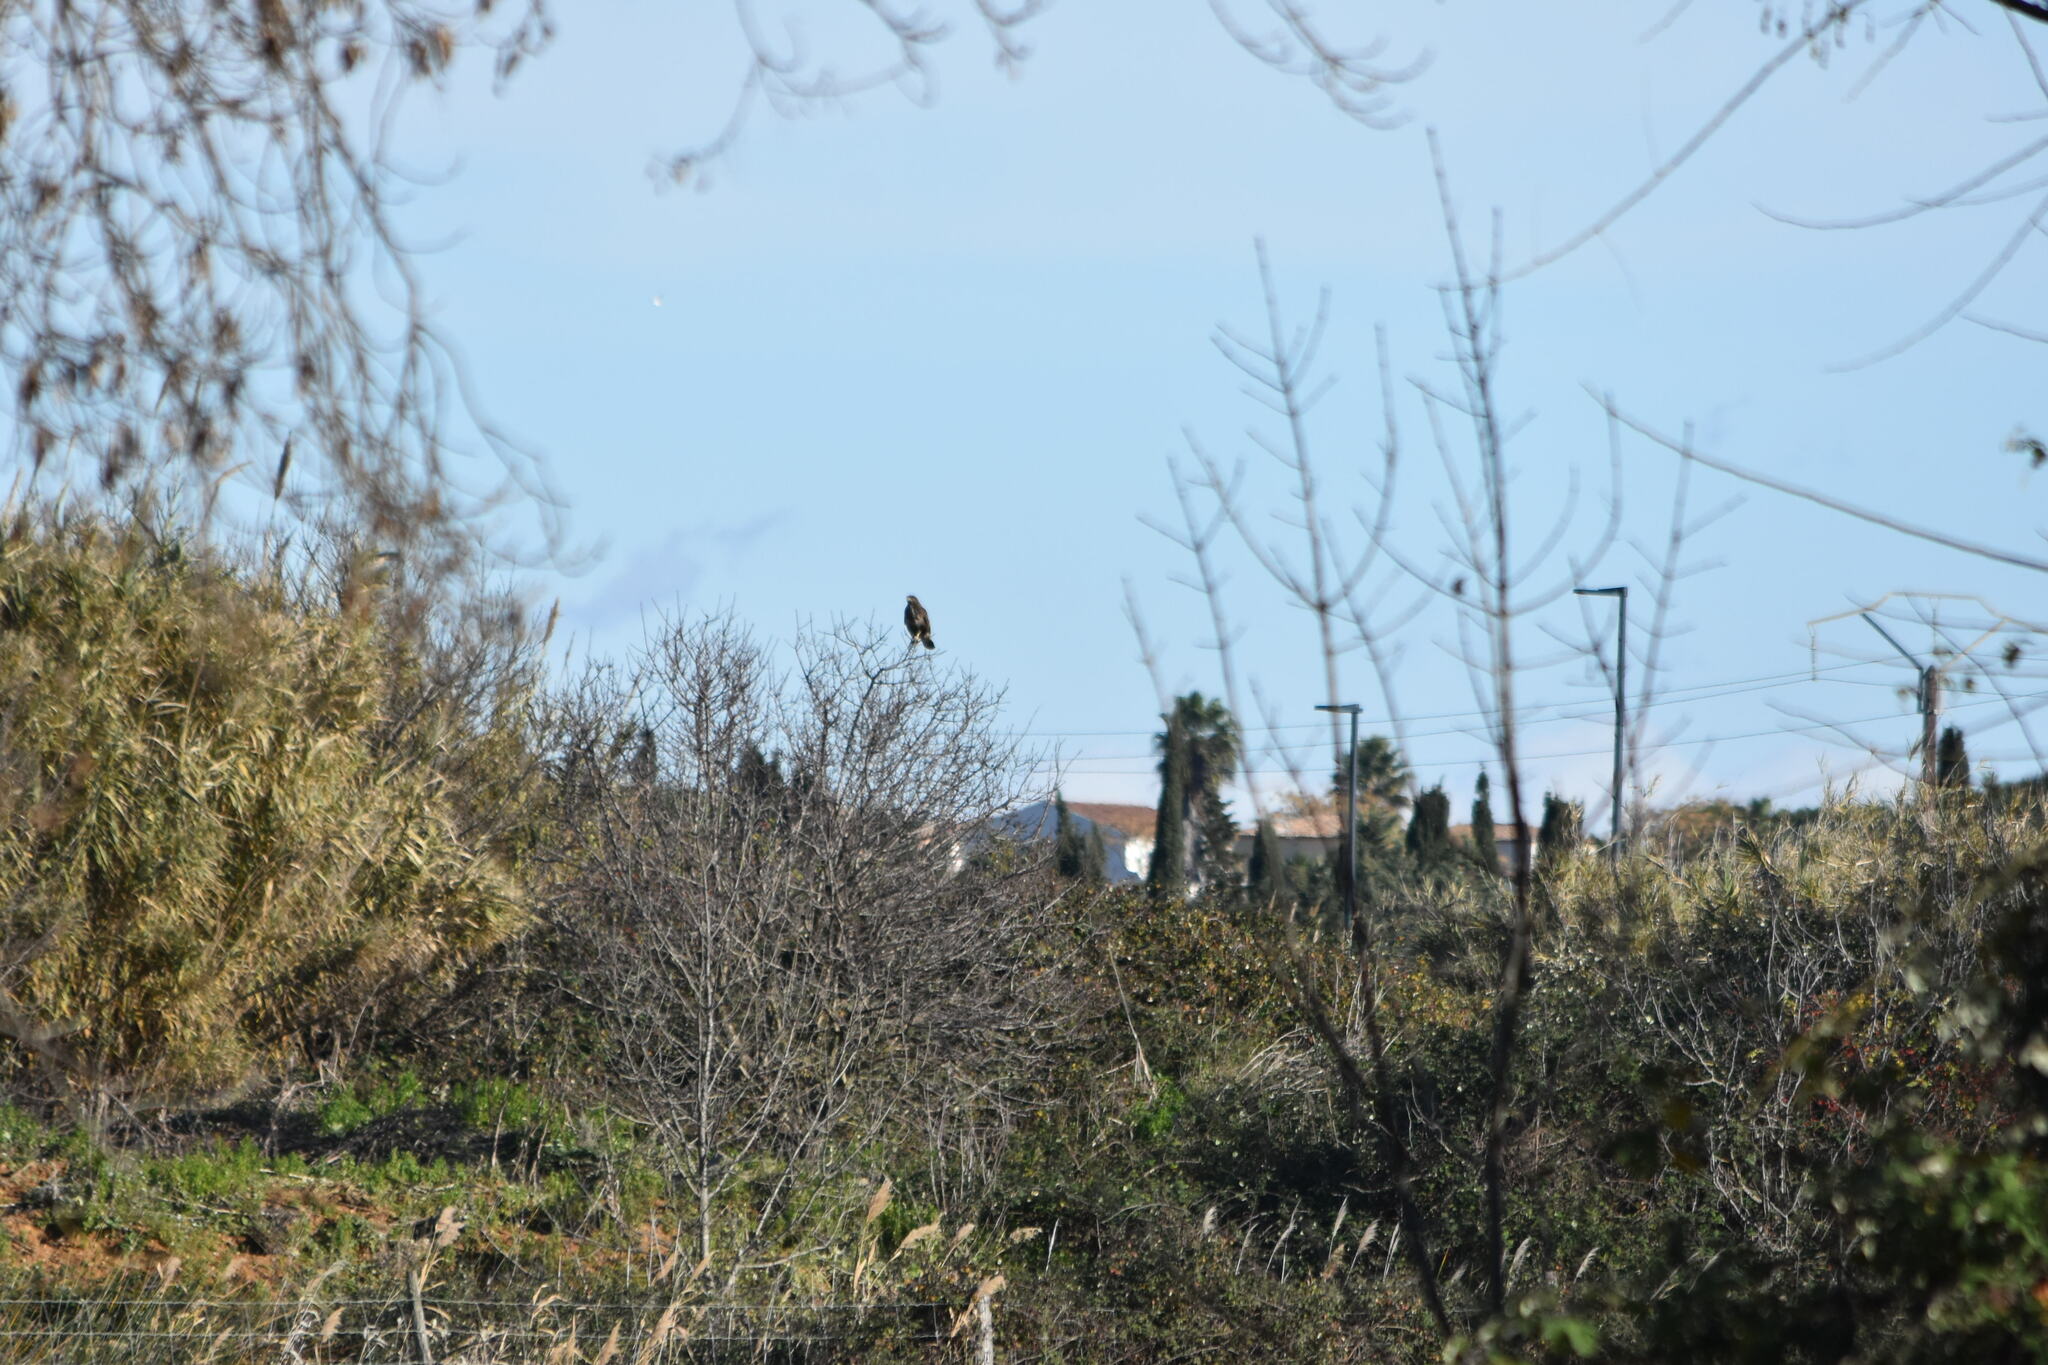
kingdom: Animalia
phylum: Chordata
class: Aves
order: Accipitriformes
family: Accipitridae
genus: Buteo
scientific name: Buteo buteo
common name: Common buzzard
